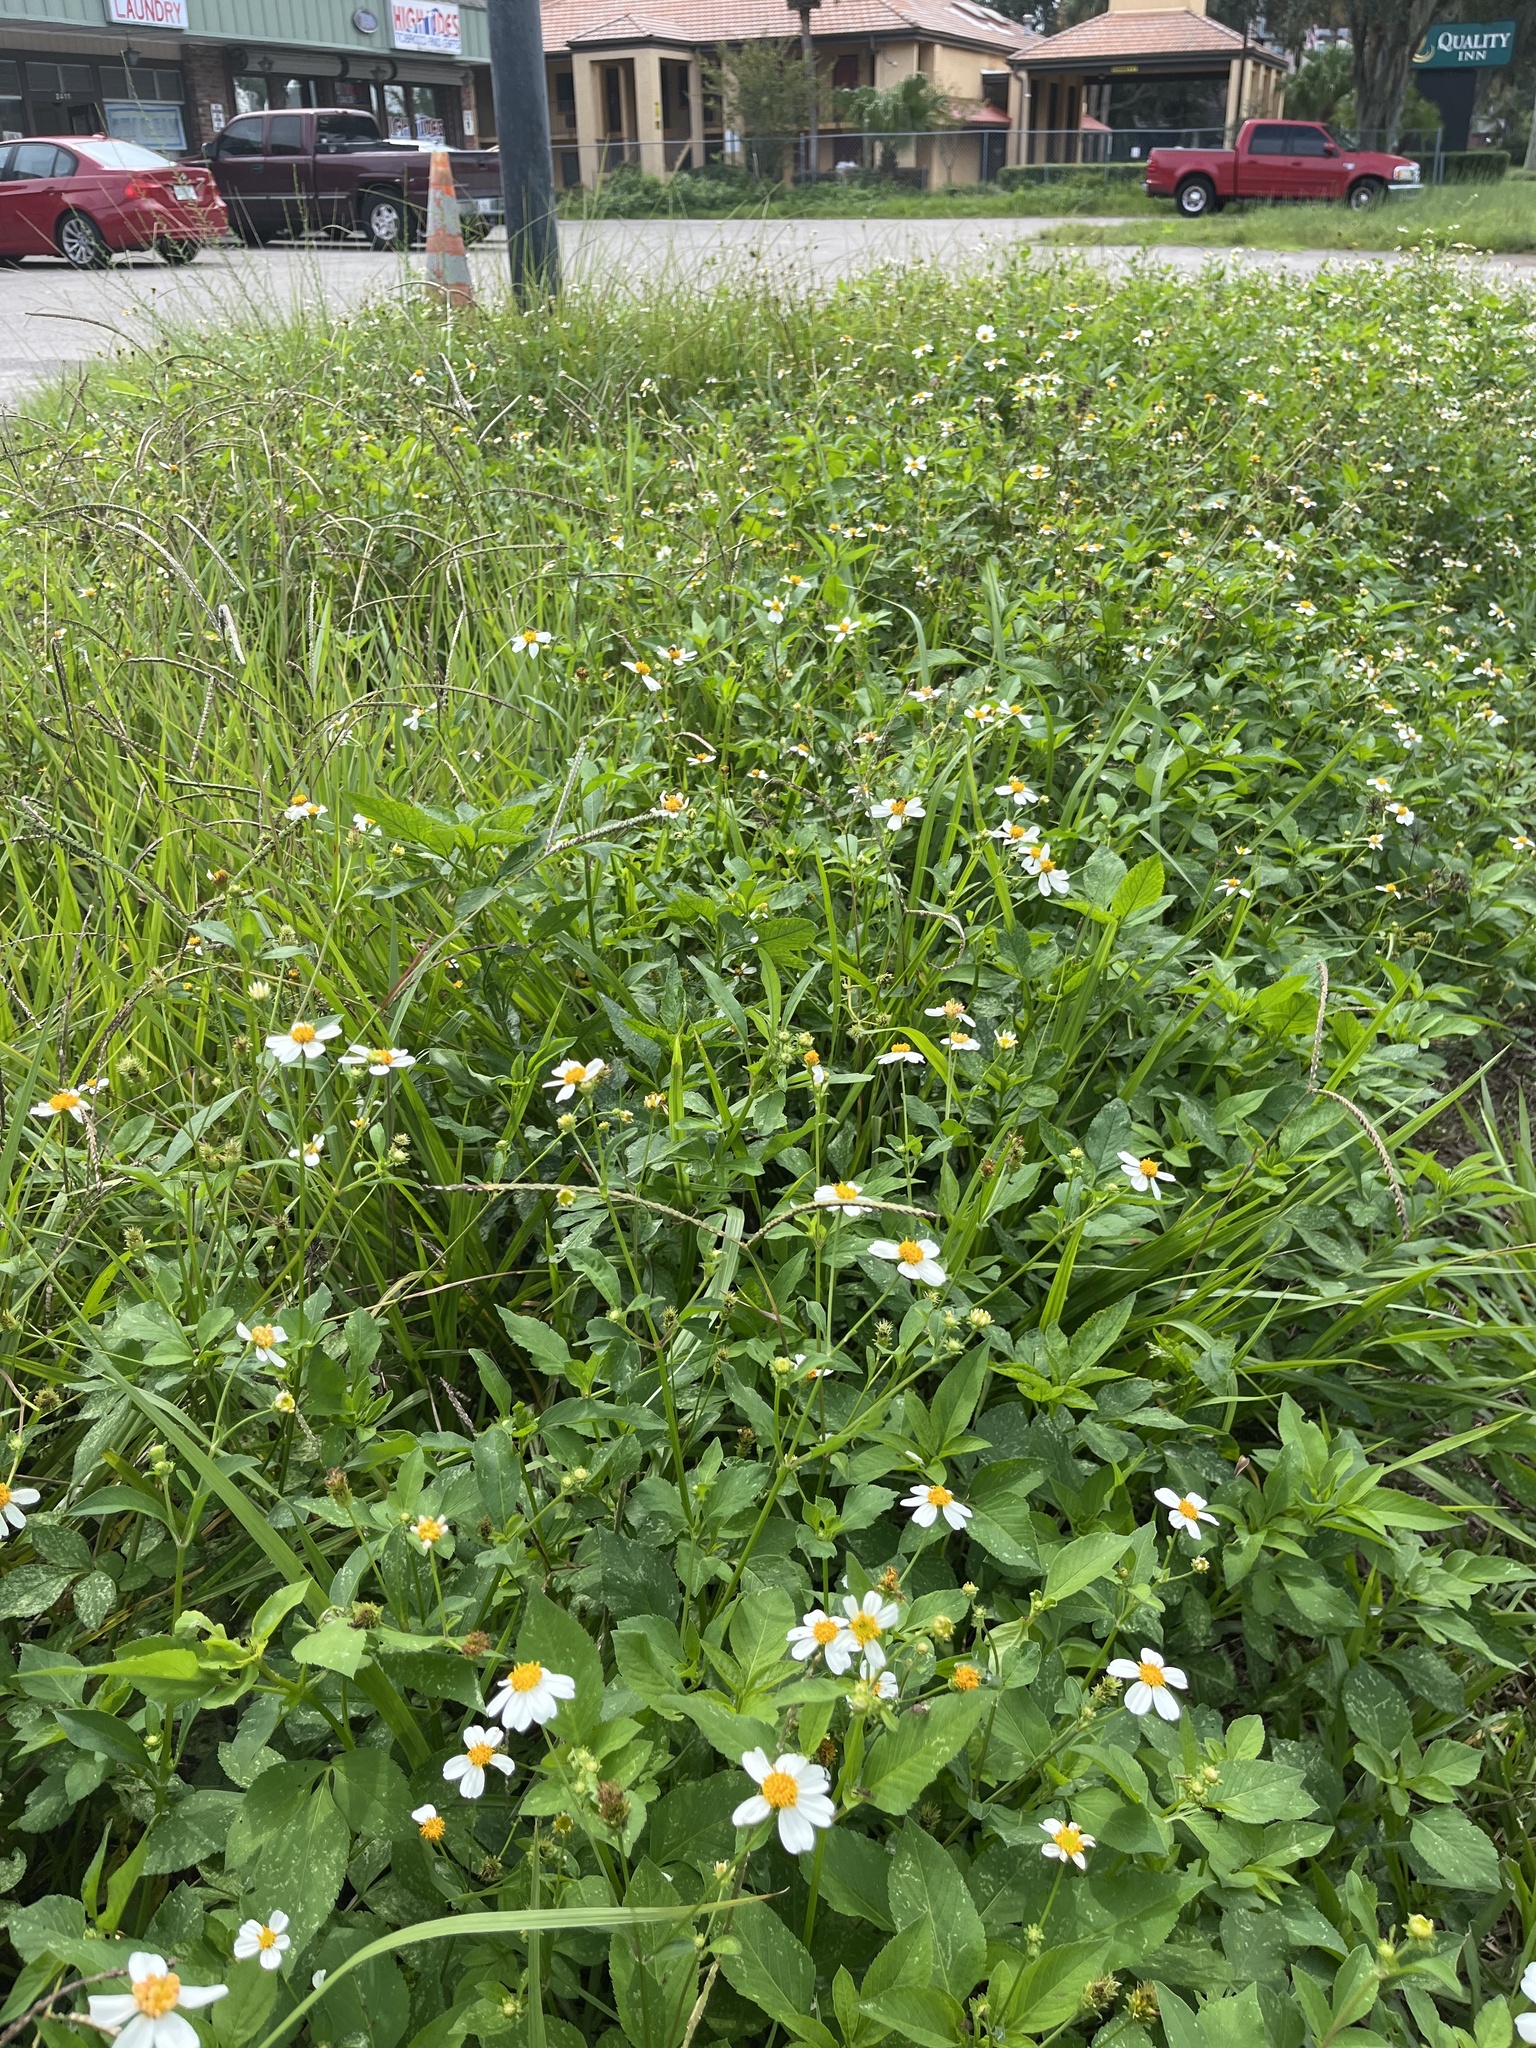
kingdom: Plantae
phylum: Tracheophyta
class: Magnoliopsida
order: Asterales
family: Asteraceae
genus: Bidens
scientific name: Bidens alba
